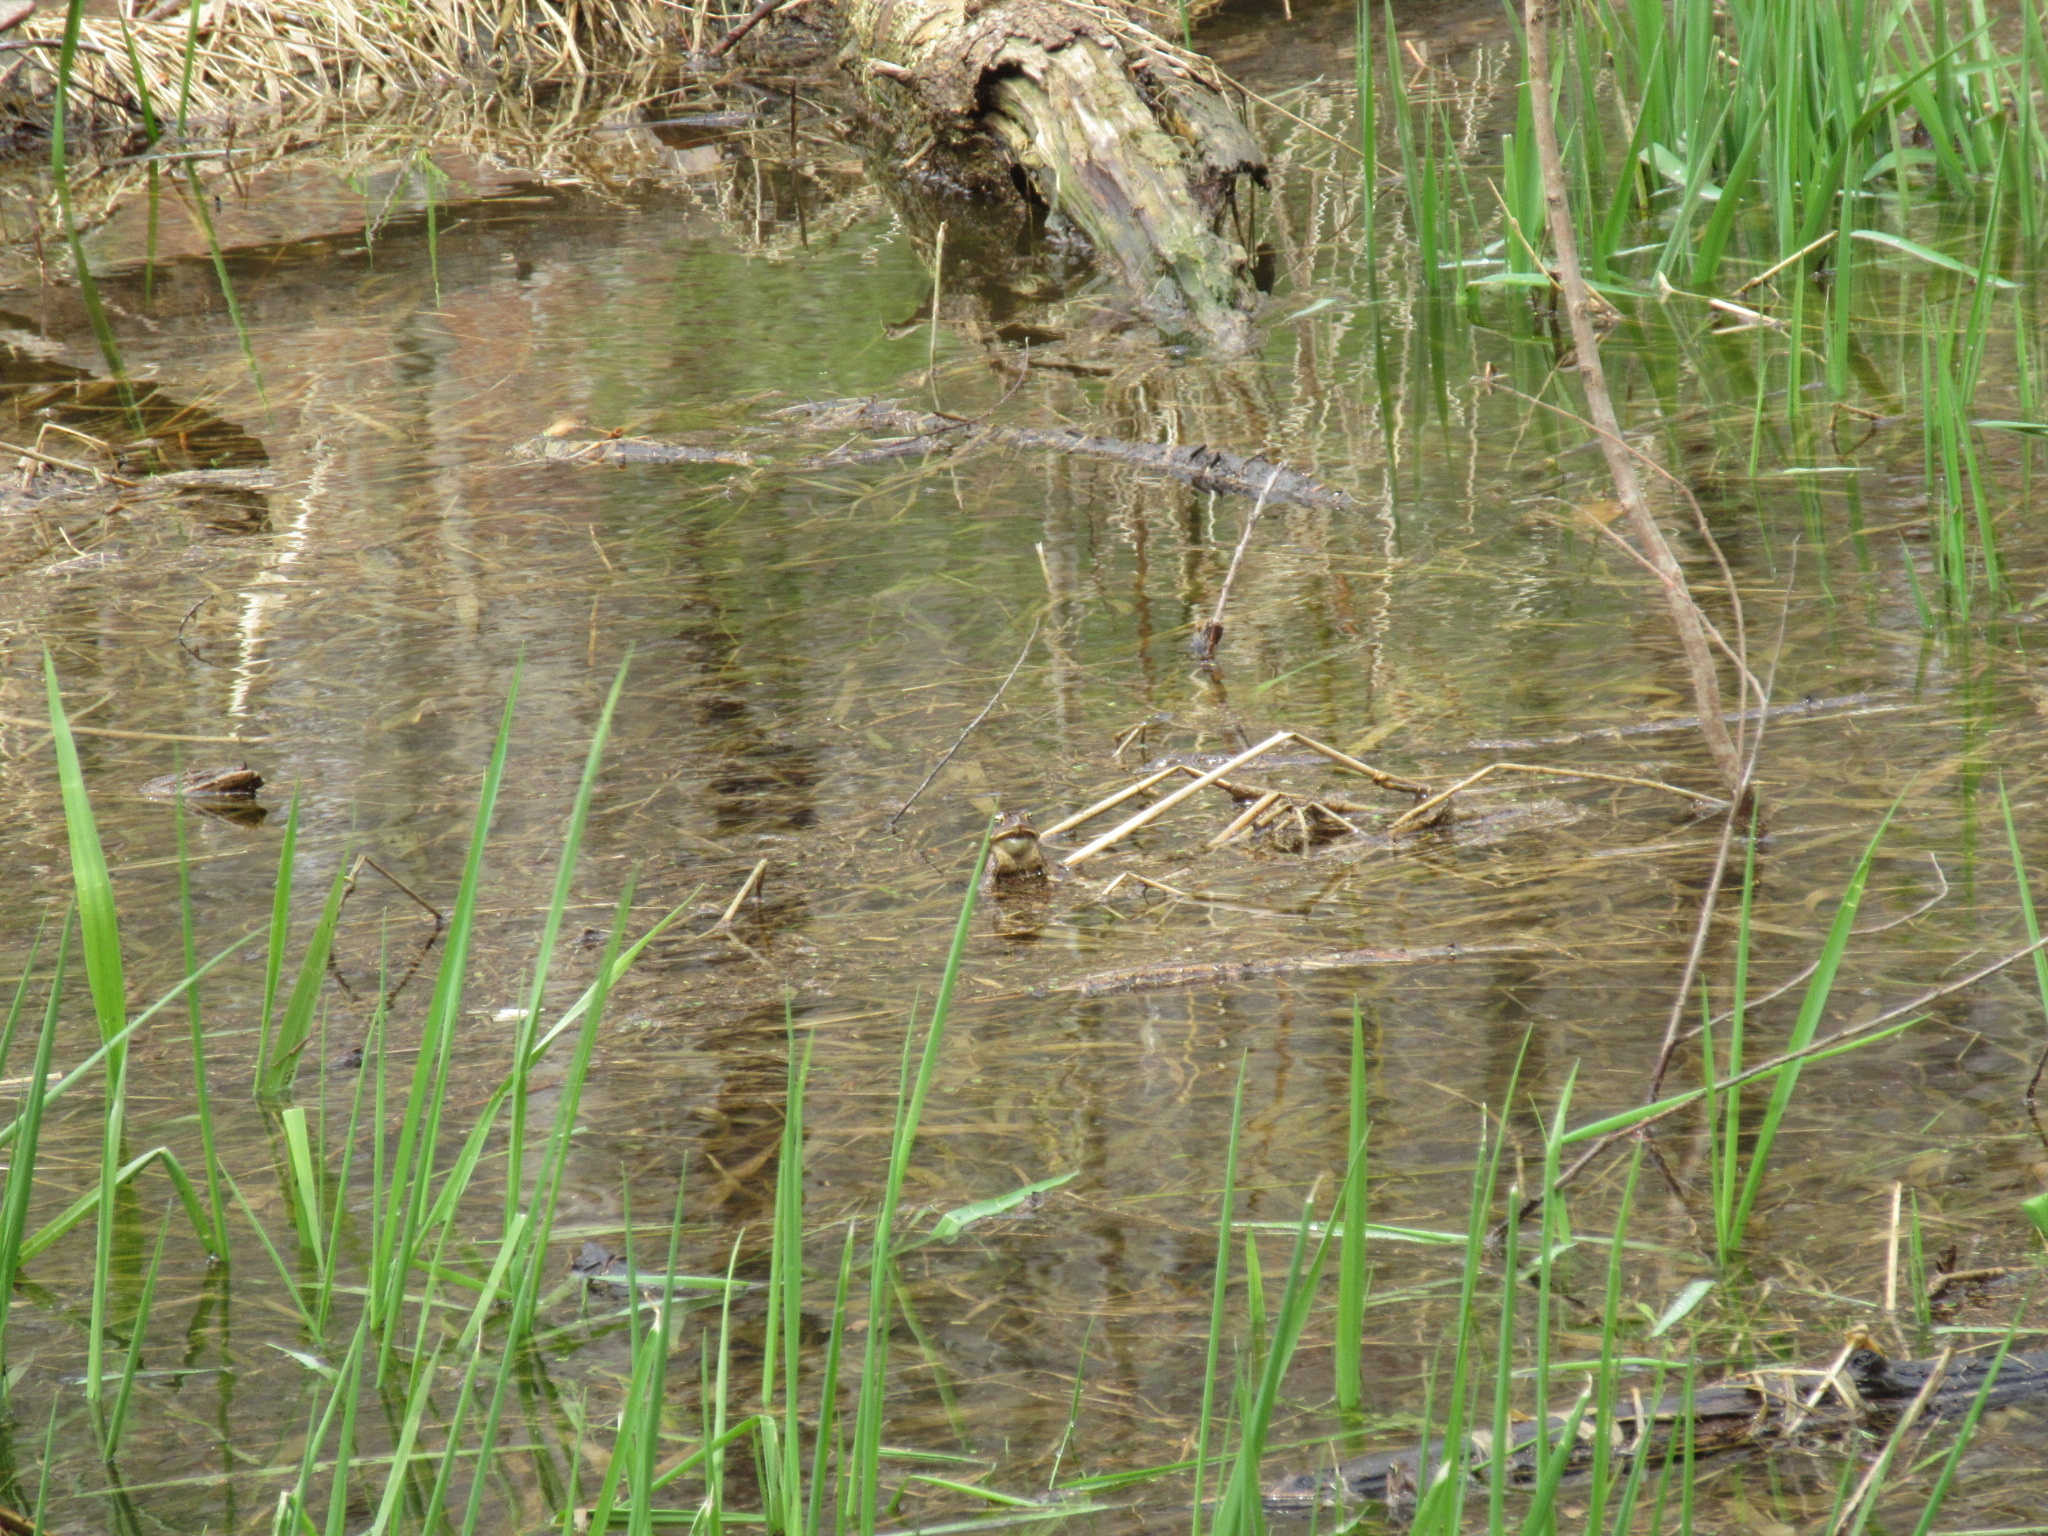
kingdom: Animalia
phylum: Chordata
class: Amphibia
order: Anura
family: Bufonidae
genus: Anaxyrus
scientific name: Anaxyrus americanus
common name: American toad
